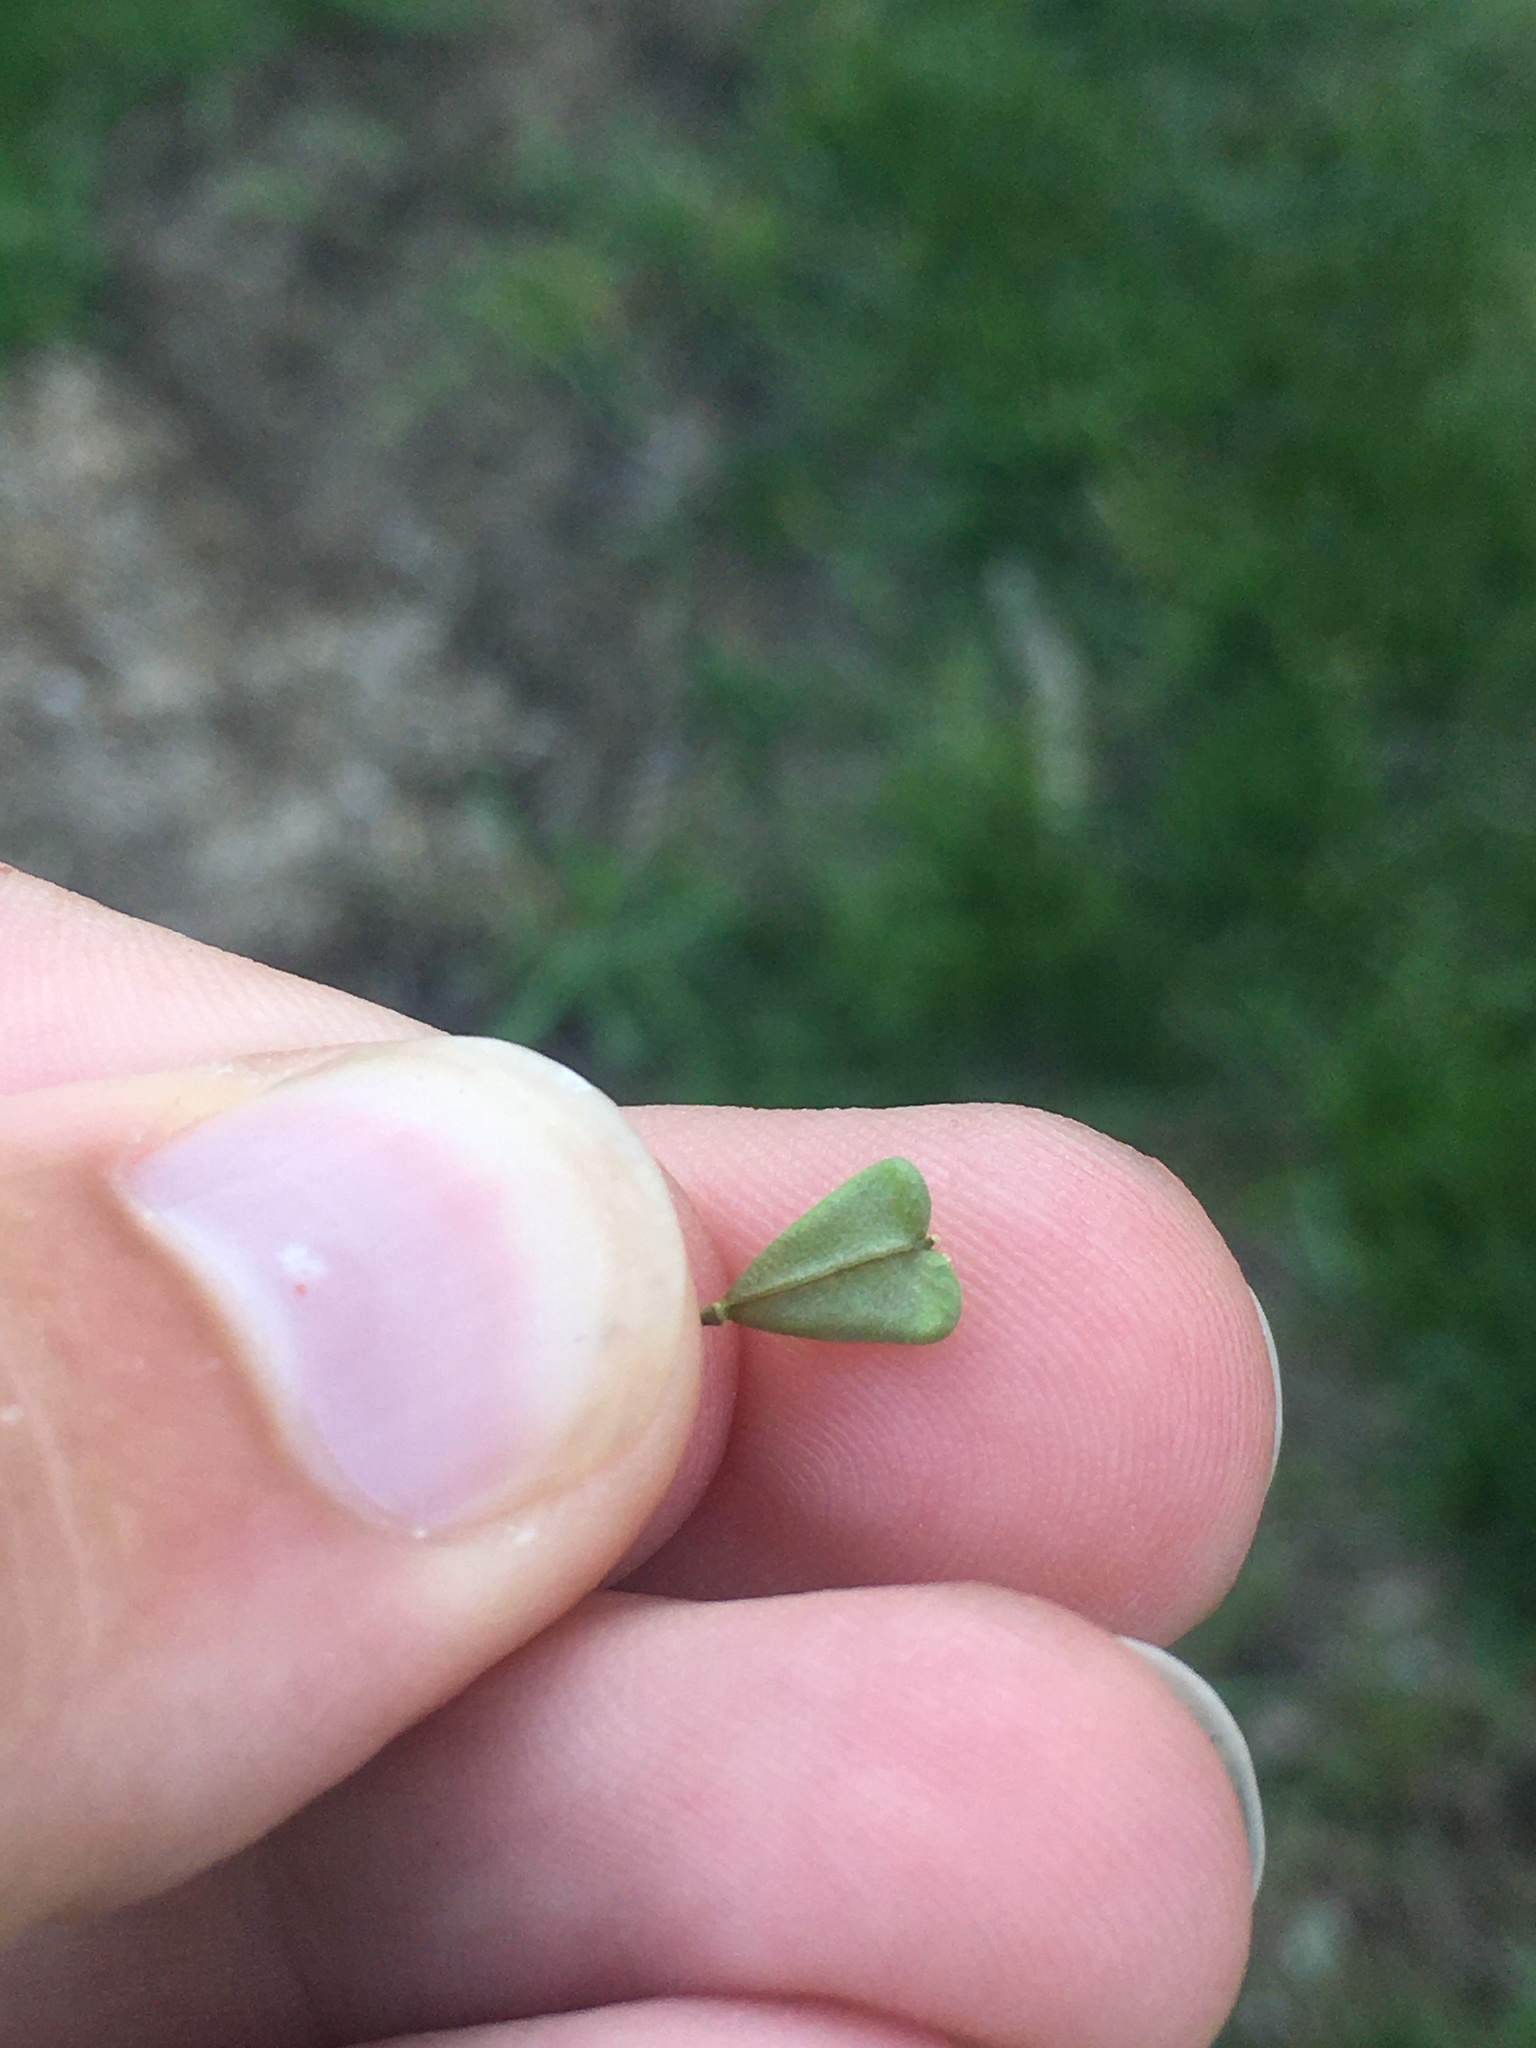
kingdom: Plantae
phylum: Tracheophyta
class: Magnoliopsida
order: Brassicales
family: Brassicaceae
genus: Capsella
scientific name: Capsella bursa-pastoris
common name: Shepherd's purse
